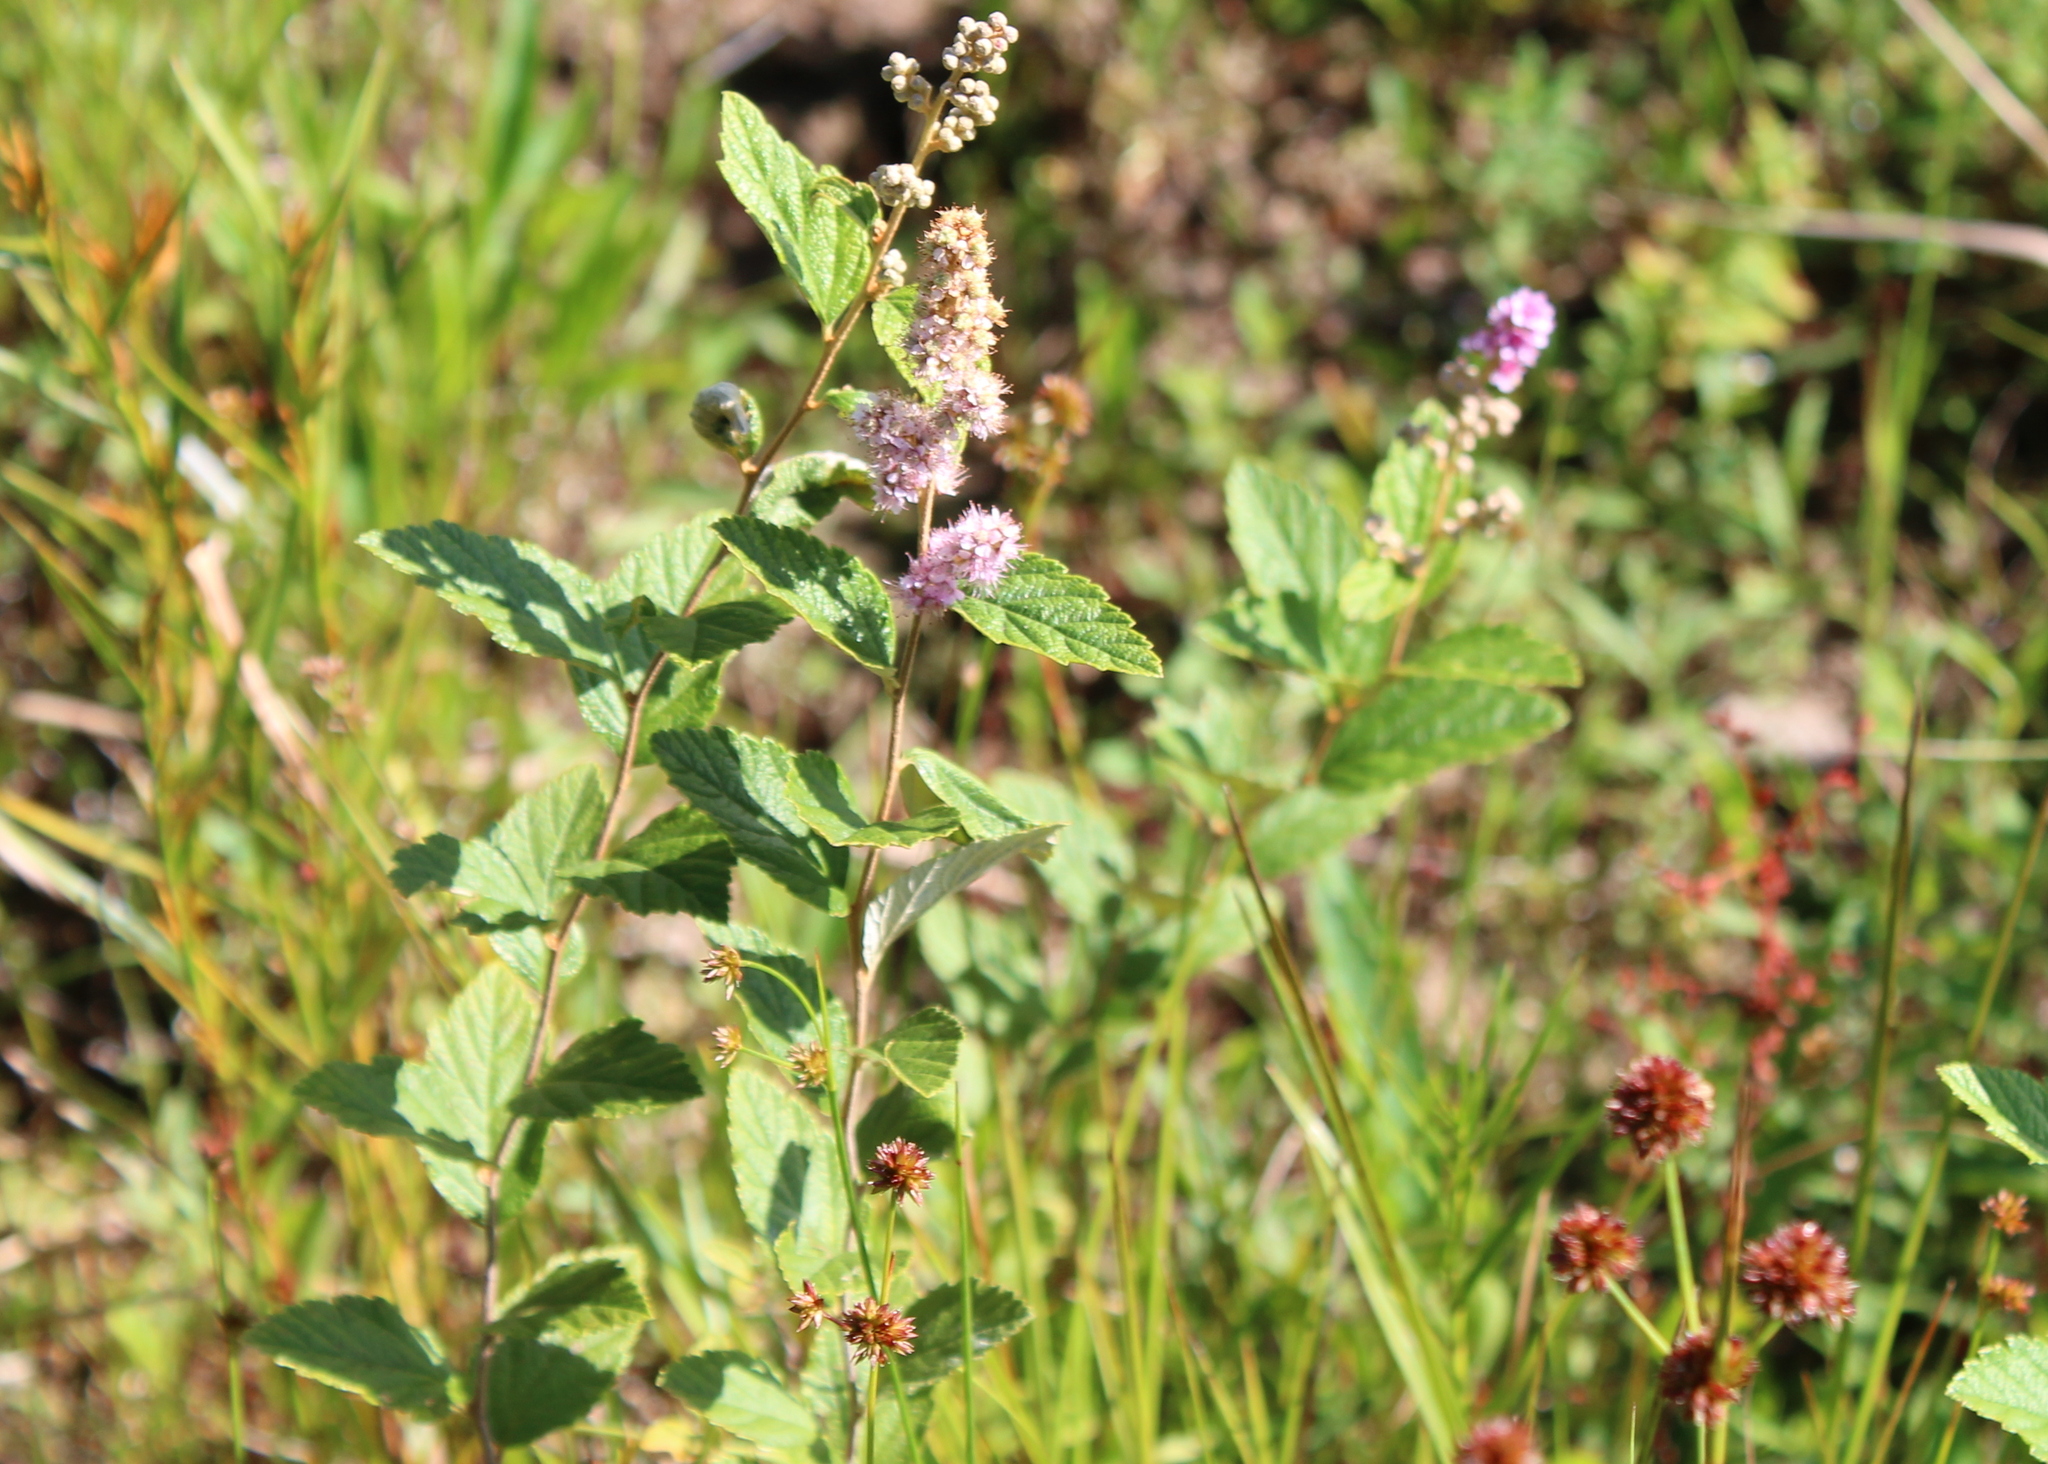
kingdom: Plantae
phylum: Tracheophyta
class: Magnoliopsida
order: Rosales
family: Rosaceae
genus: Spiraea
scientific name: Spiraea tomentosa
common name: Hardhack
